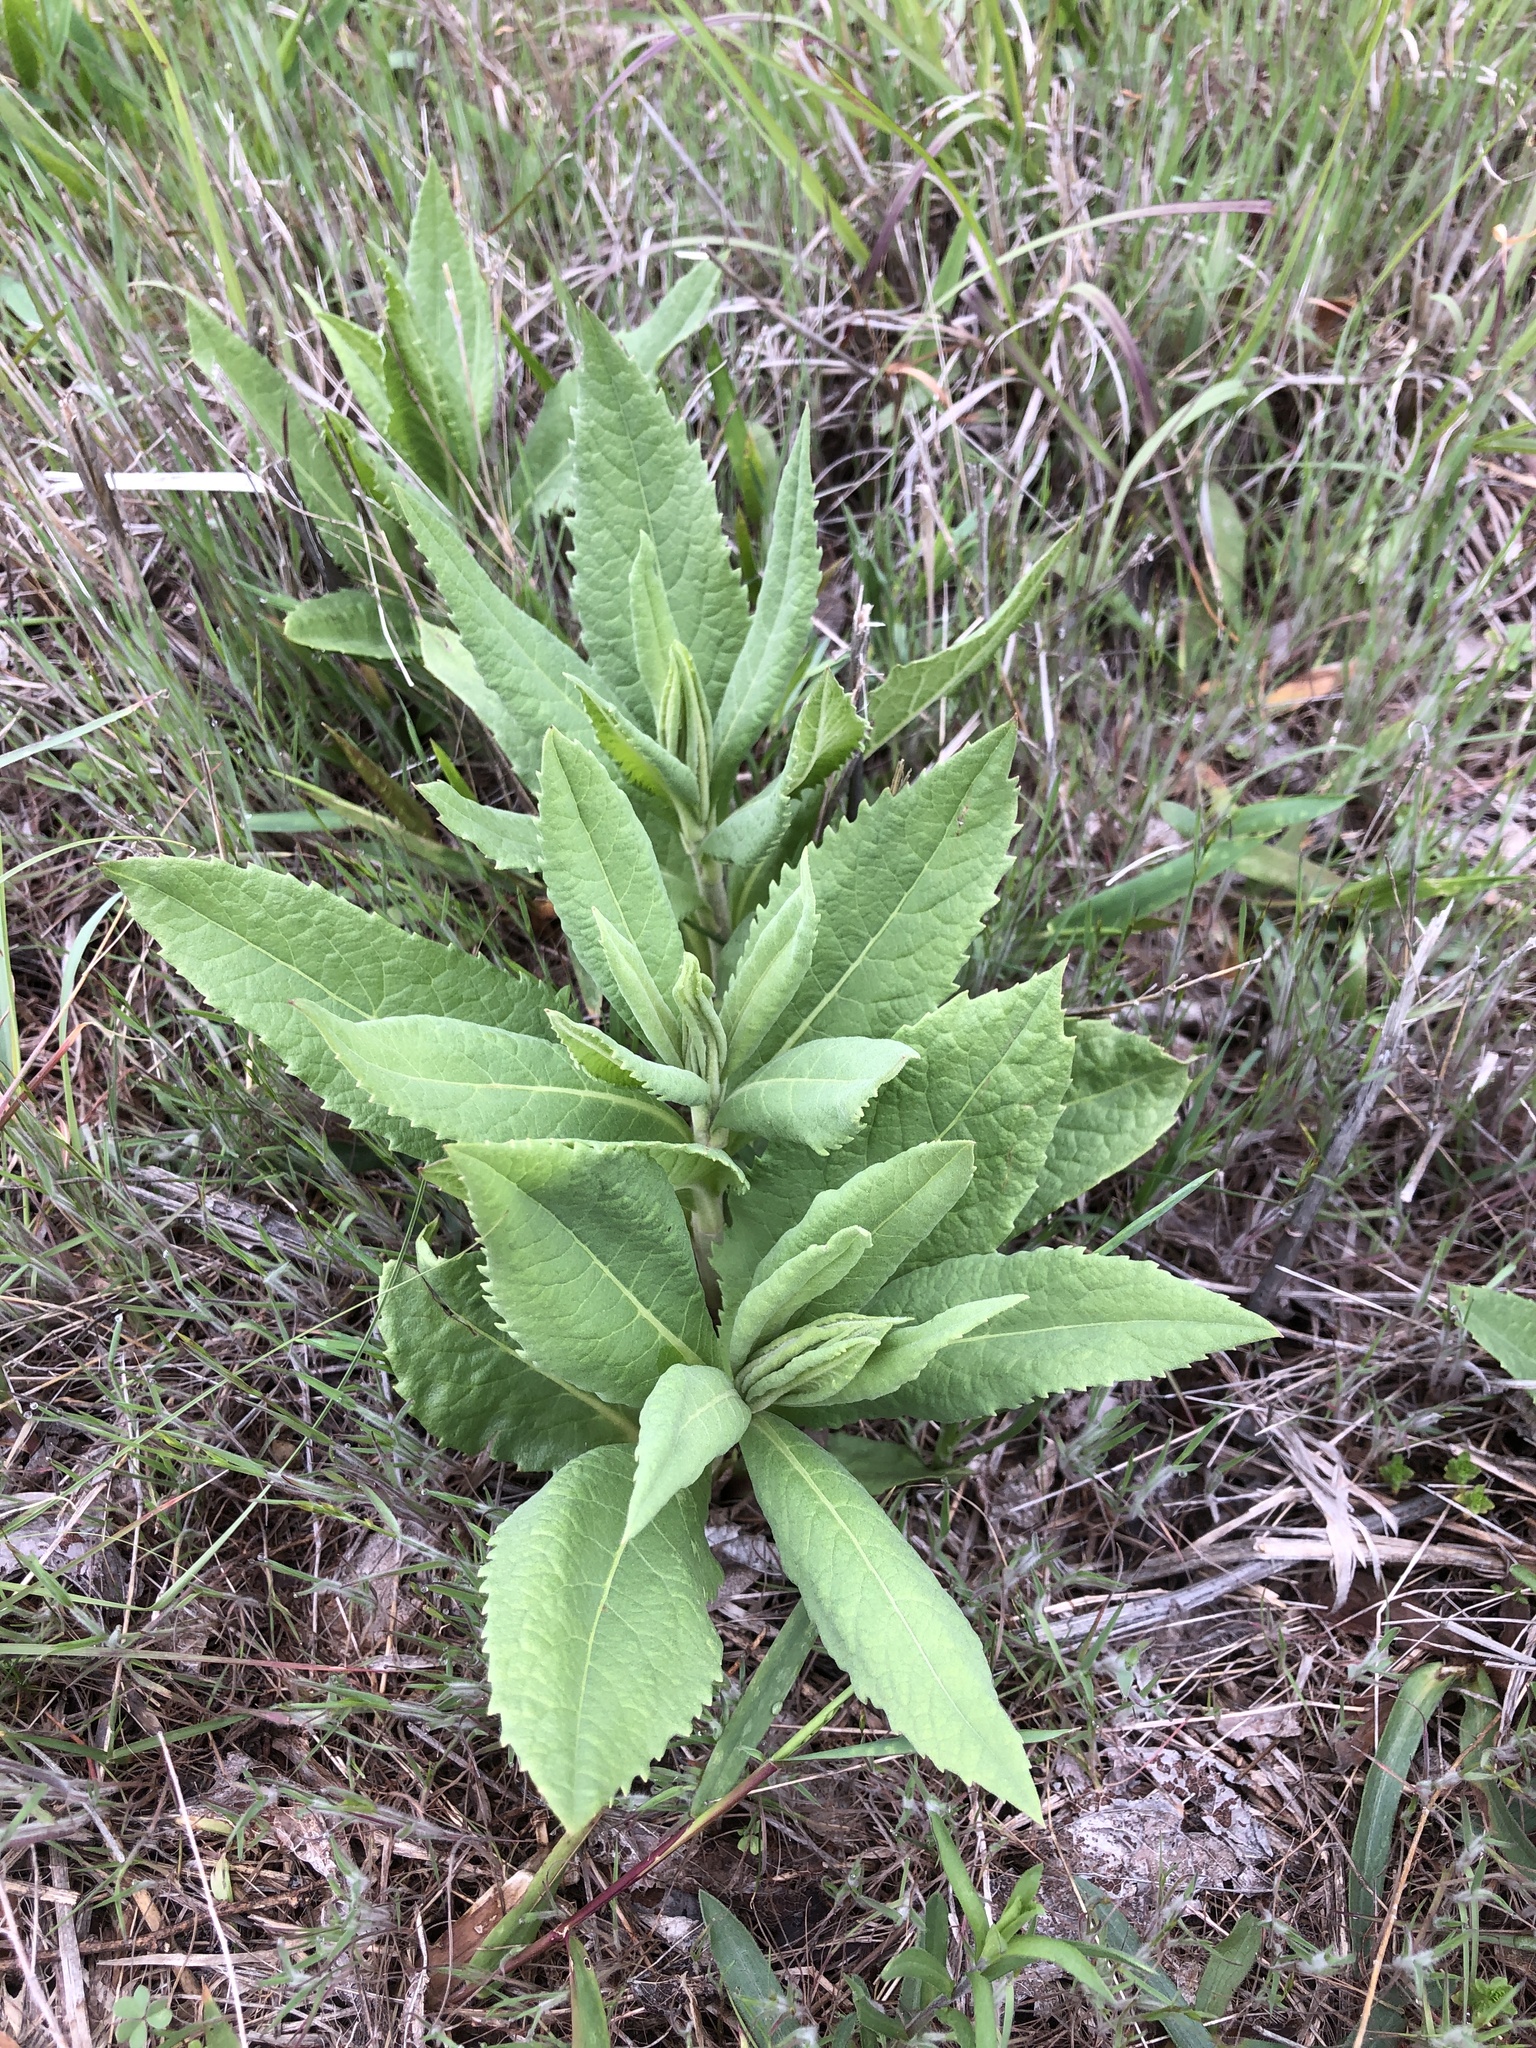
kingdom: Plantae
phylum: Tracheophyta
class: Magnoliopsida
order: Asterales
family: Asteraceae
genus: Vernonia
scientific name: Vernonia baldwinii
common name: Western ironweed
